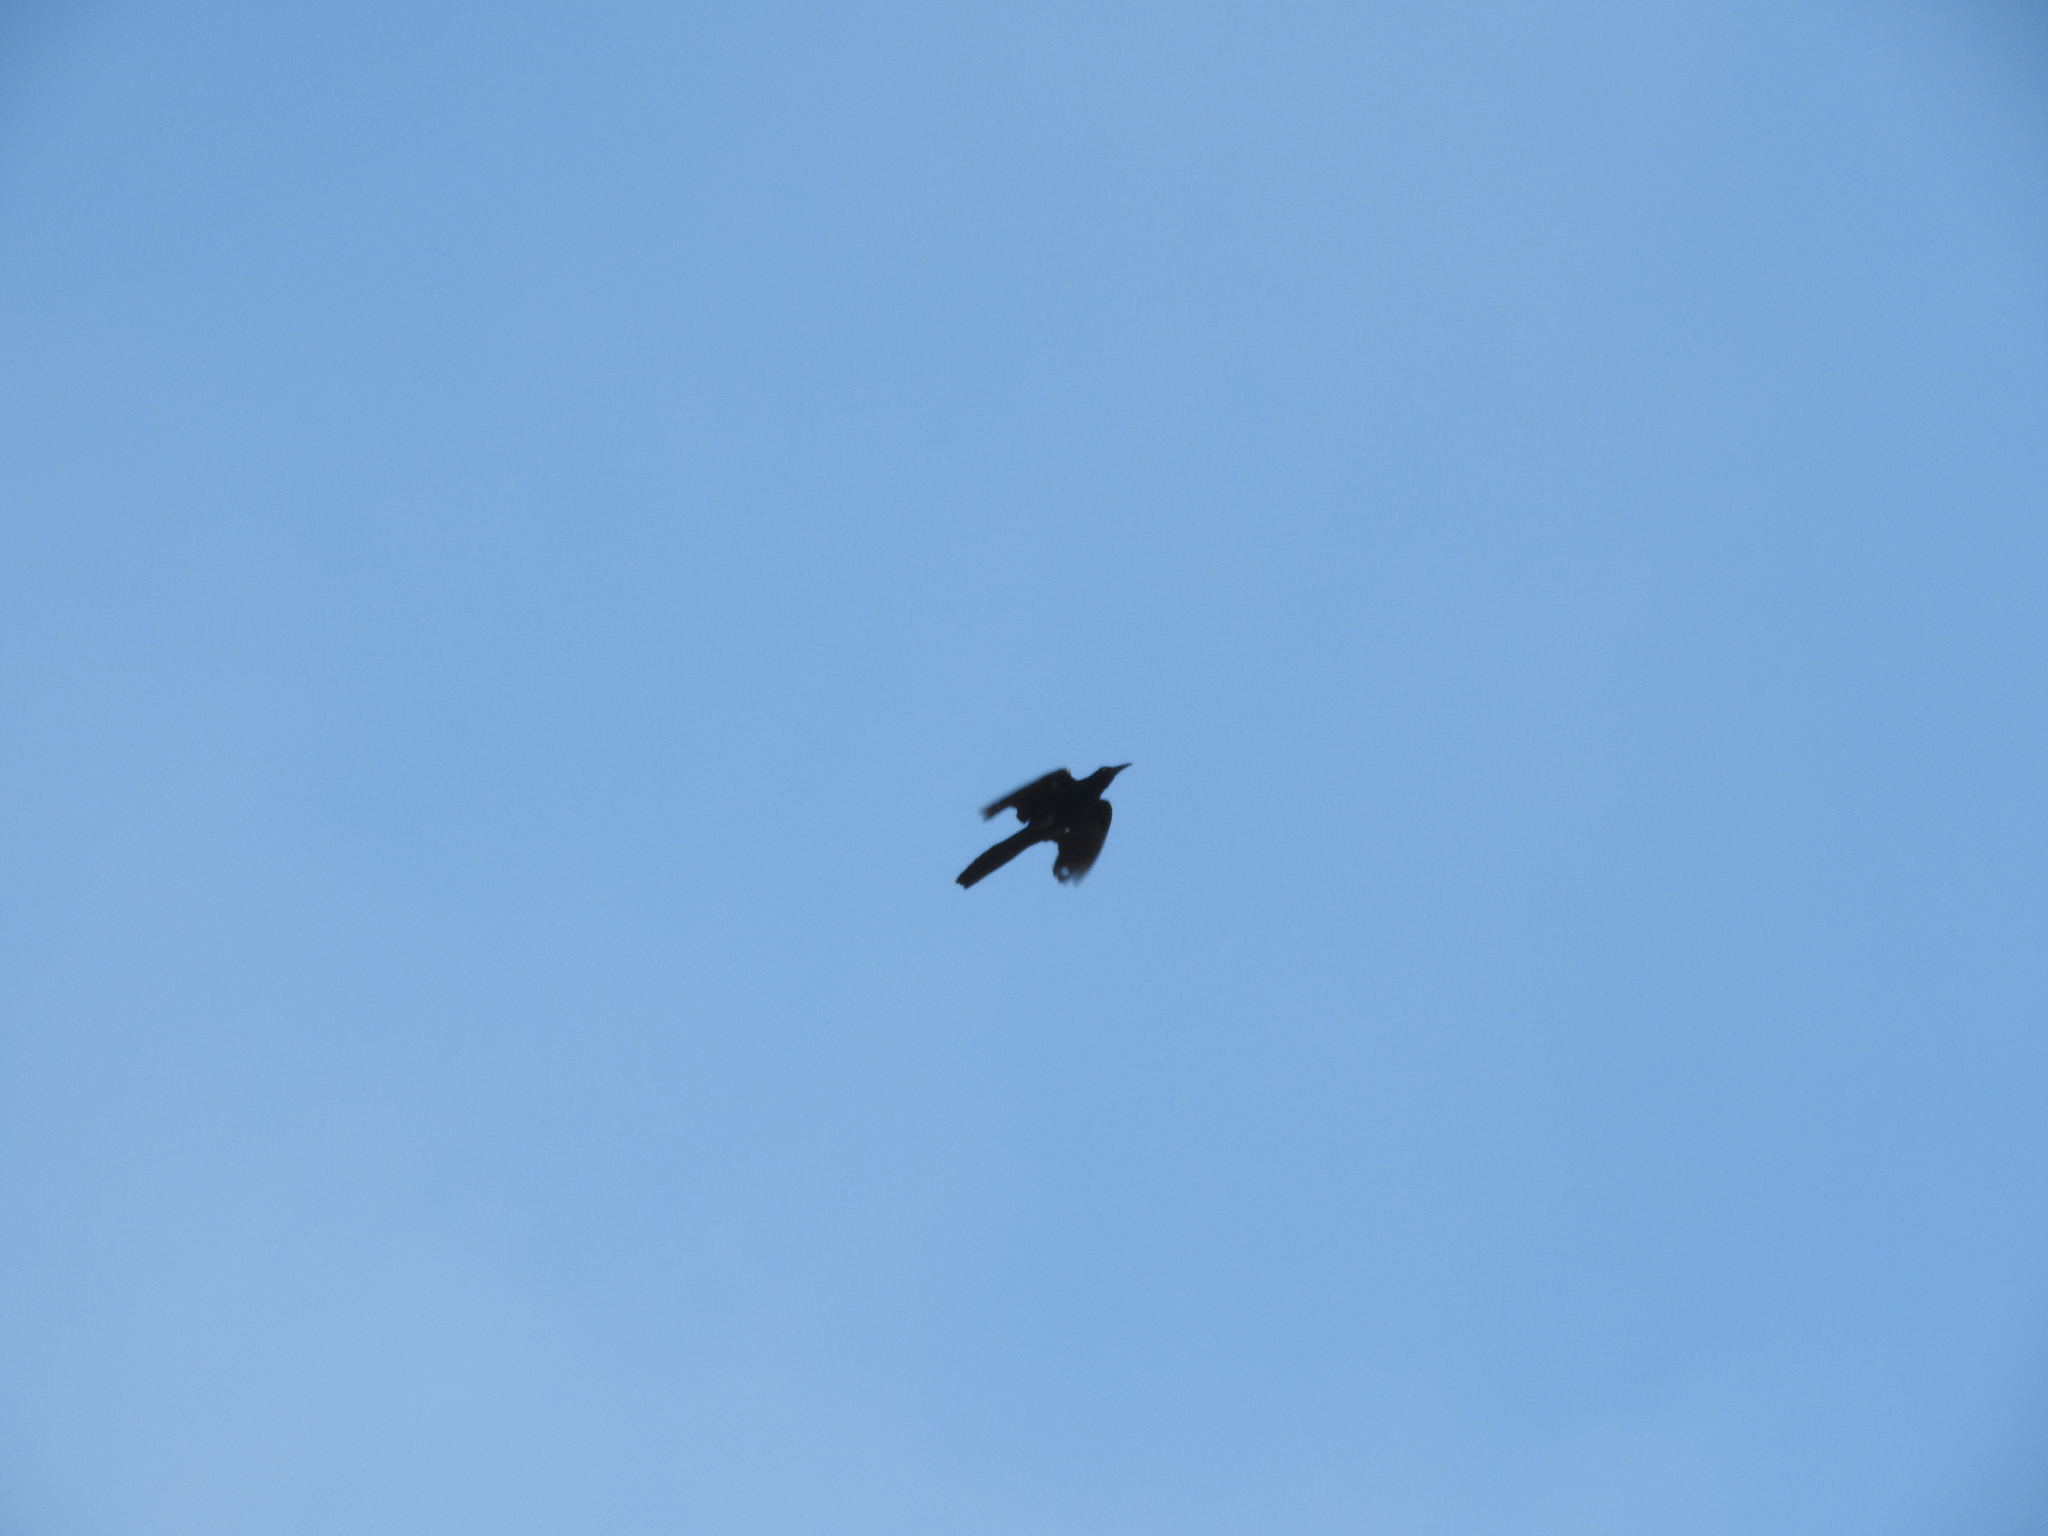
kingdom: Animalia
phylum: Chordata
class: Aves
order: Passeriformes
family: Icteridae
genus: Quiscalus
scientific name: Quiscalus mexicanus
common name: Great-tailed grackle
